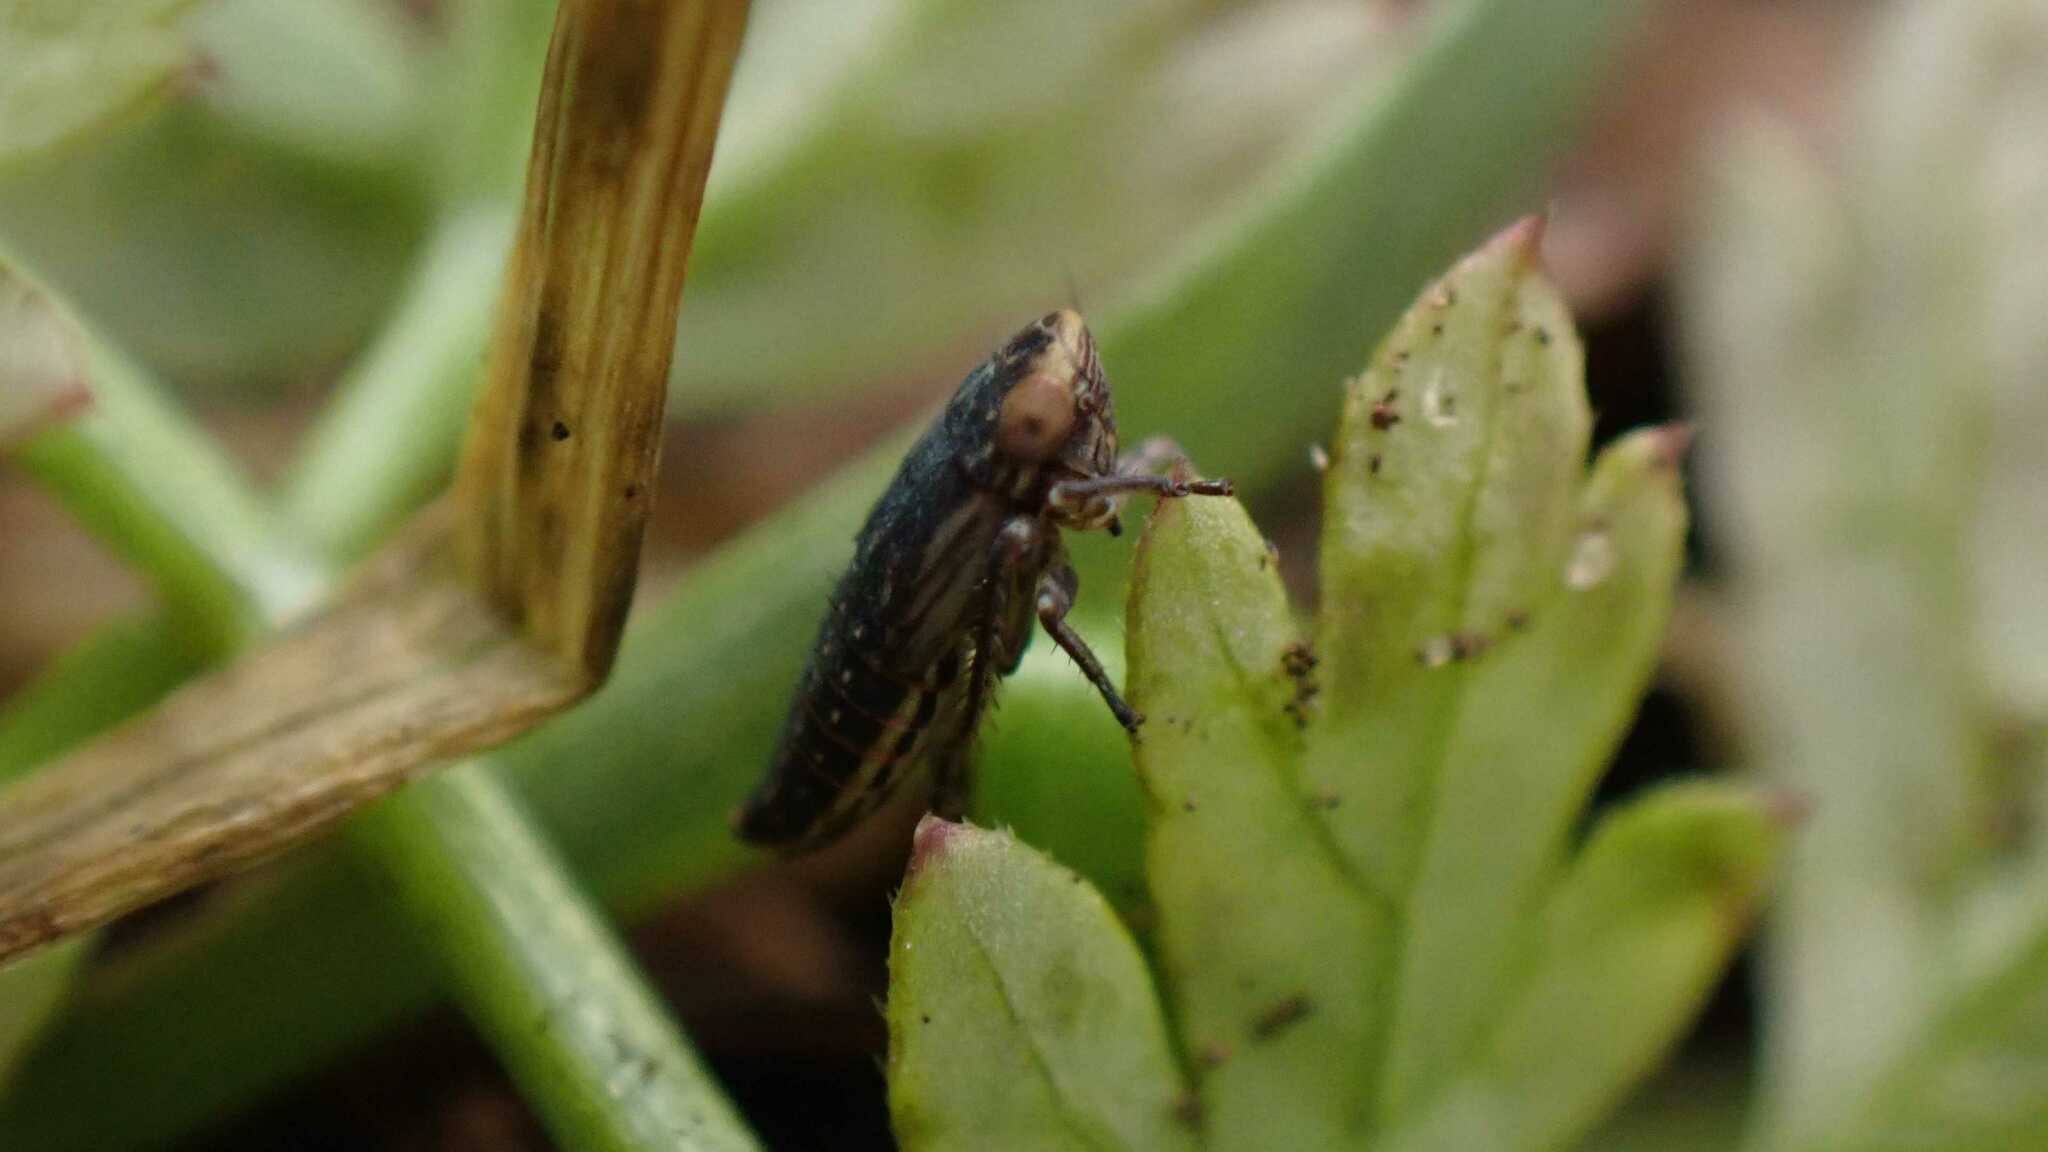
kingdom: Animalia
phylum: Arthropoda
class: Insecta
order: Hemiptera
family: Cicadellidae
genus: Euscelis
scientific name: Euscelis incisa
